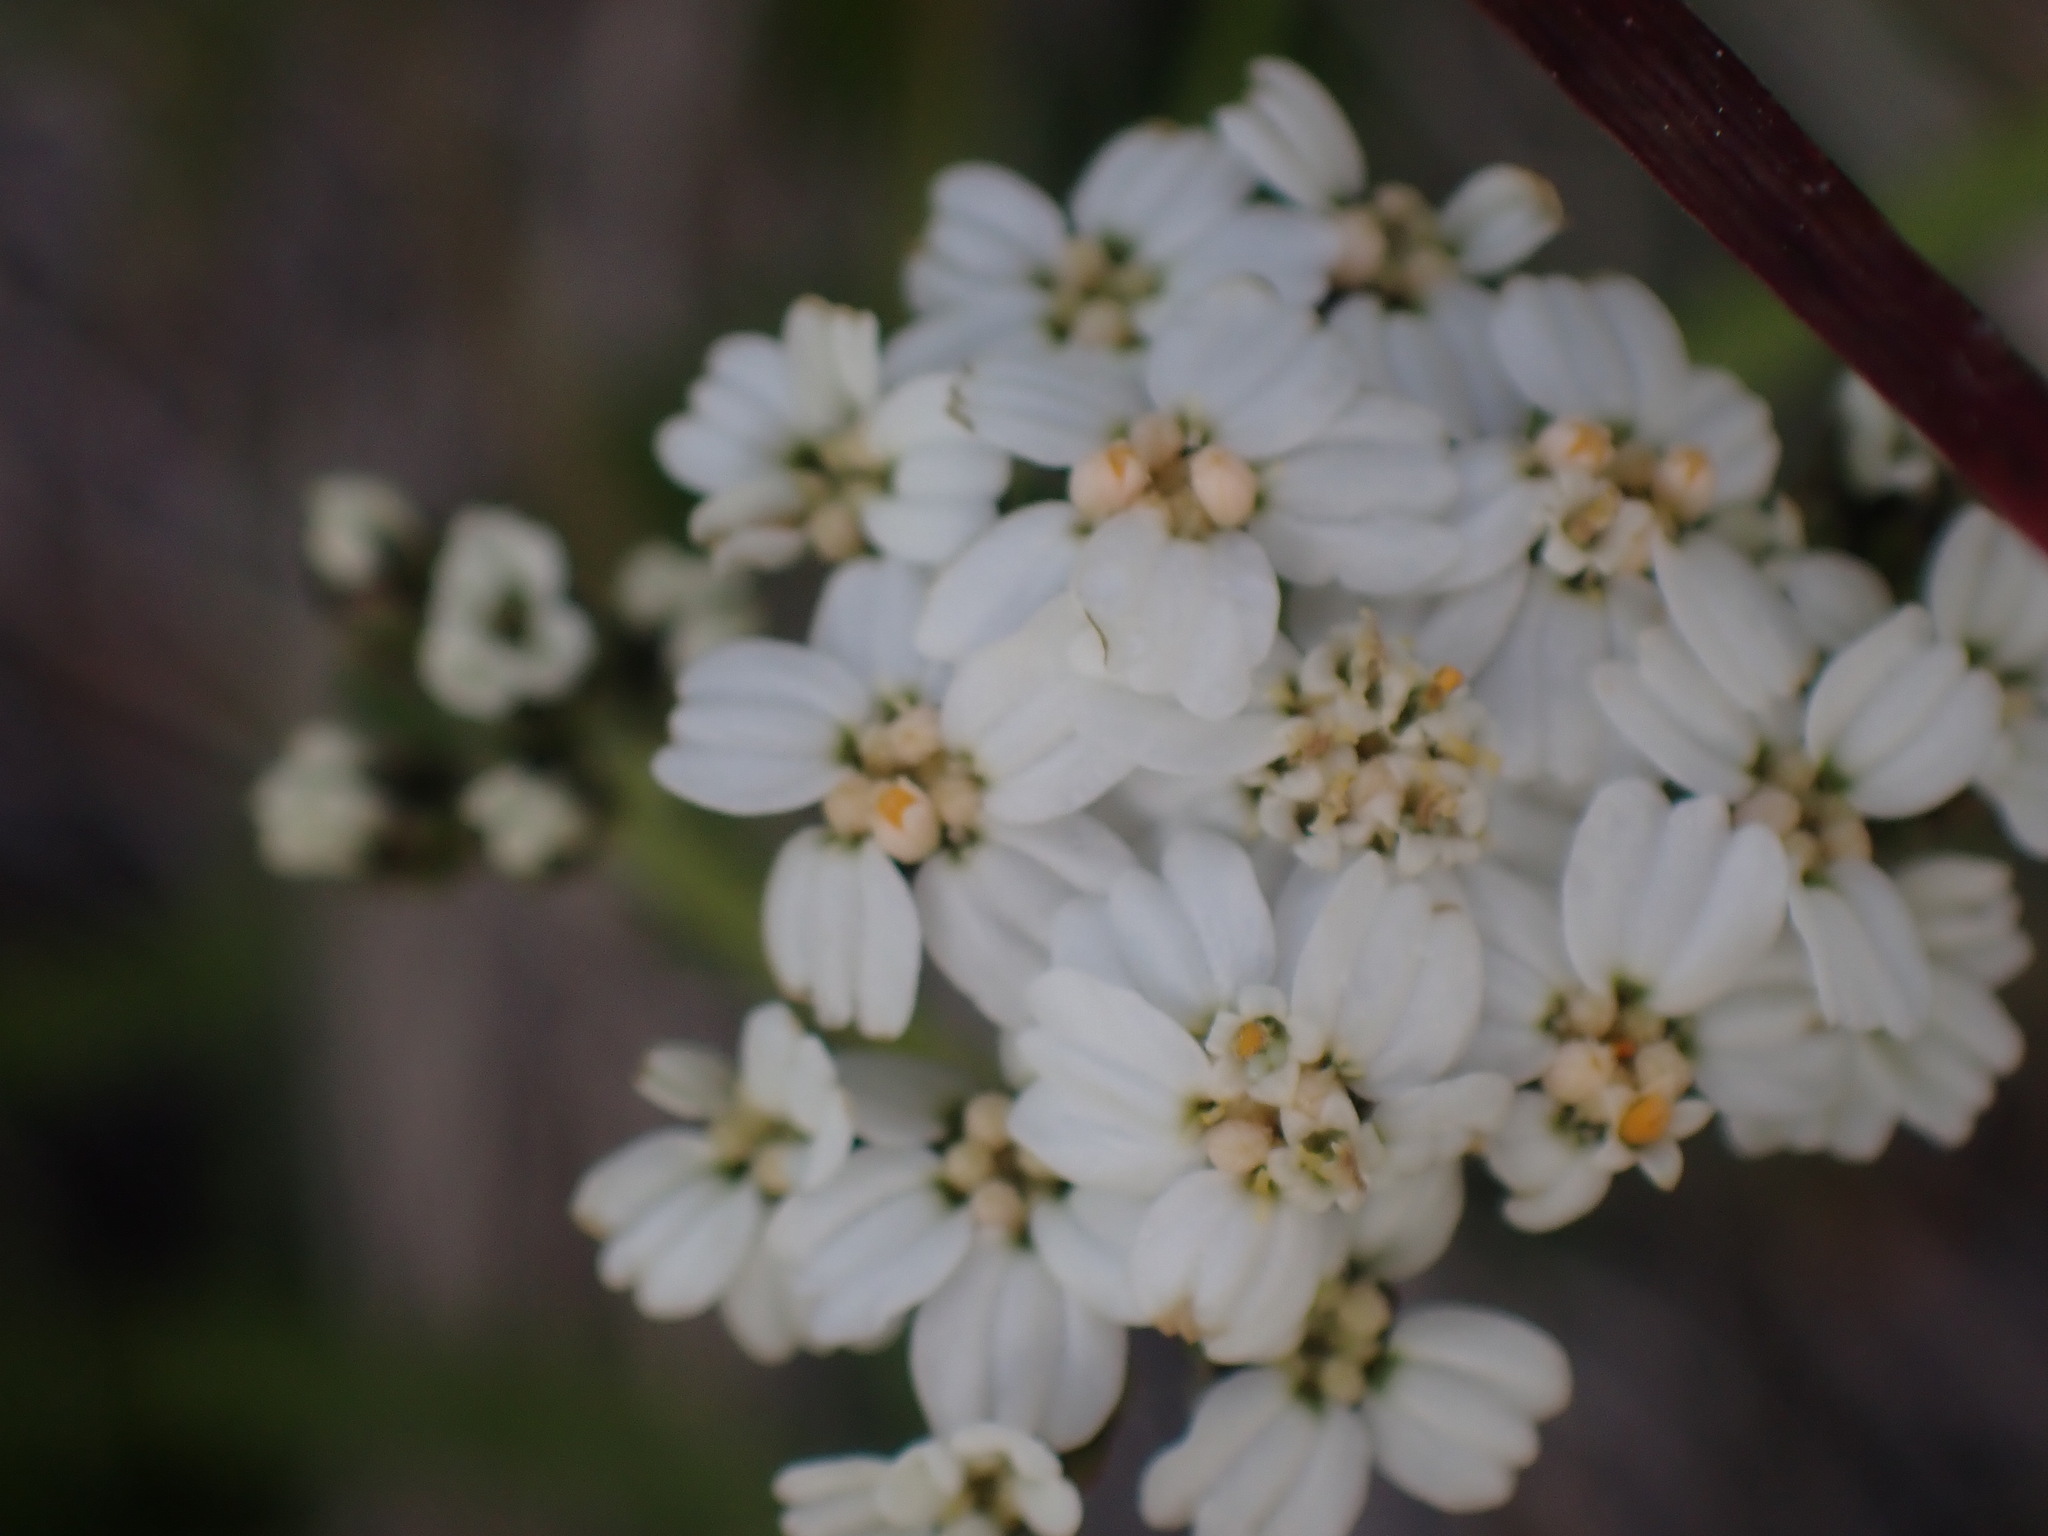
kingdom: Plantae
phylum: Tracheophyta
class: Magnoliopsida
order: Asterales
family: Asteraceae
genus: Achillea
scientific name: Achillea millefolium
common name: Yarrow
